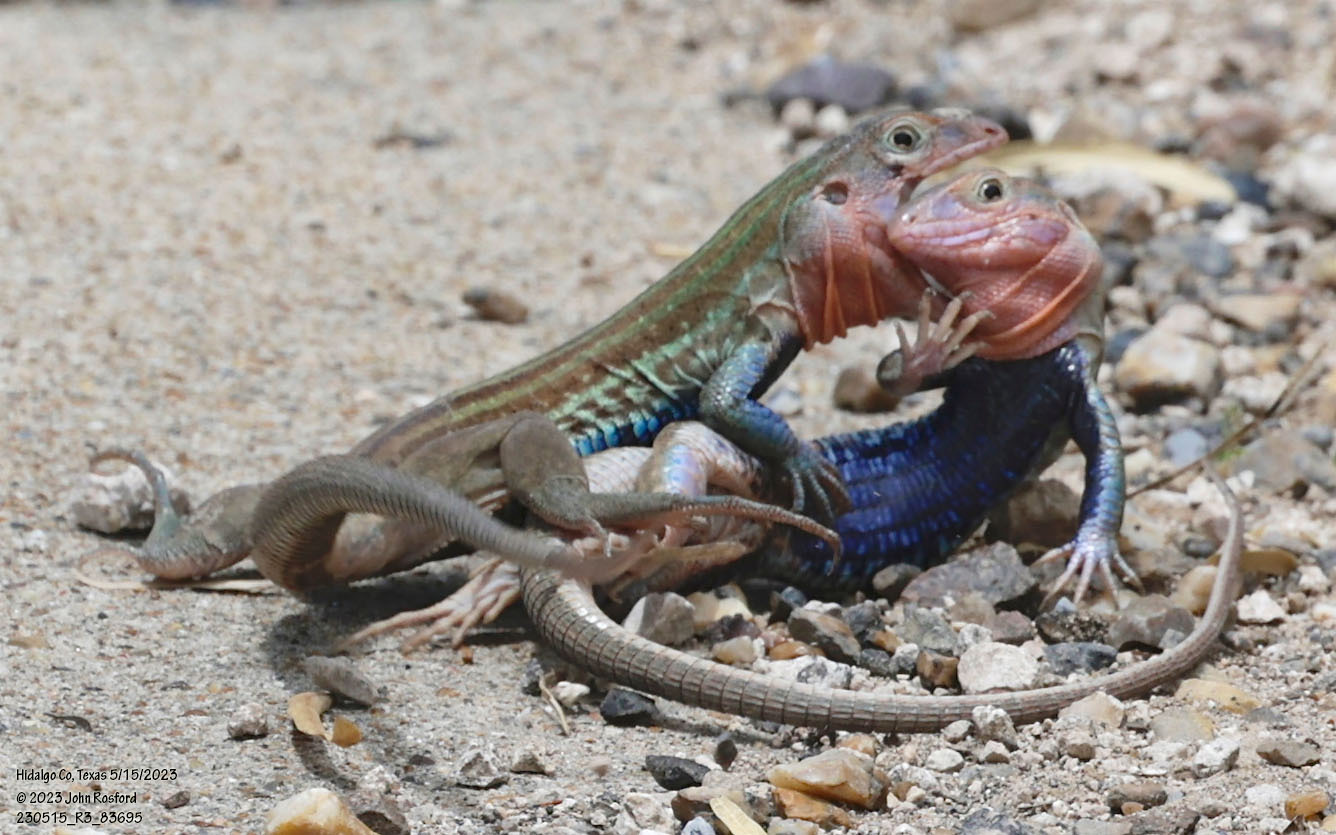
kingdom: Animalia
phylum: Chordata
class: Squamata
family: Teiidae
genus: Aspidoscelis
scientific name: Aspidoscelis gularis
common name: Eastern spotted whiptail
